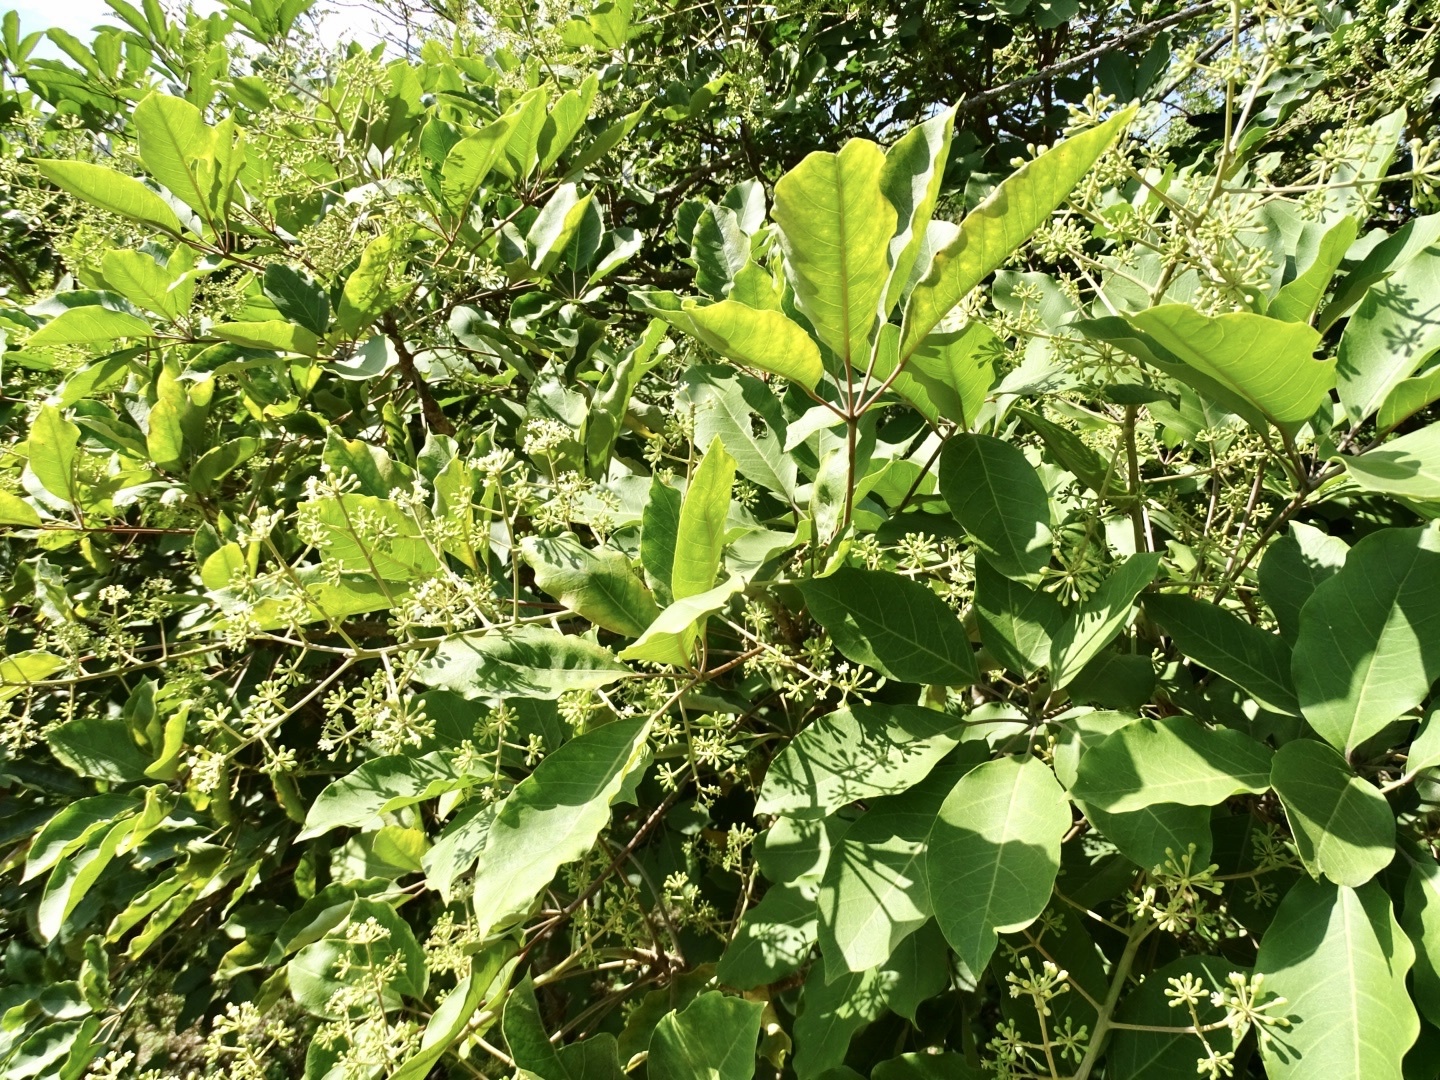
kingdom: Plantae
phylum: Tracheophyta
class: Magnoliopsida
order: Apiales
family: Araliaceae
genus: Heptapleurum
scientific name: Heptapleurum heptaphyllum
